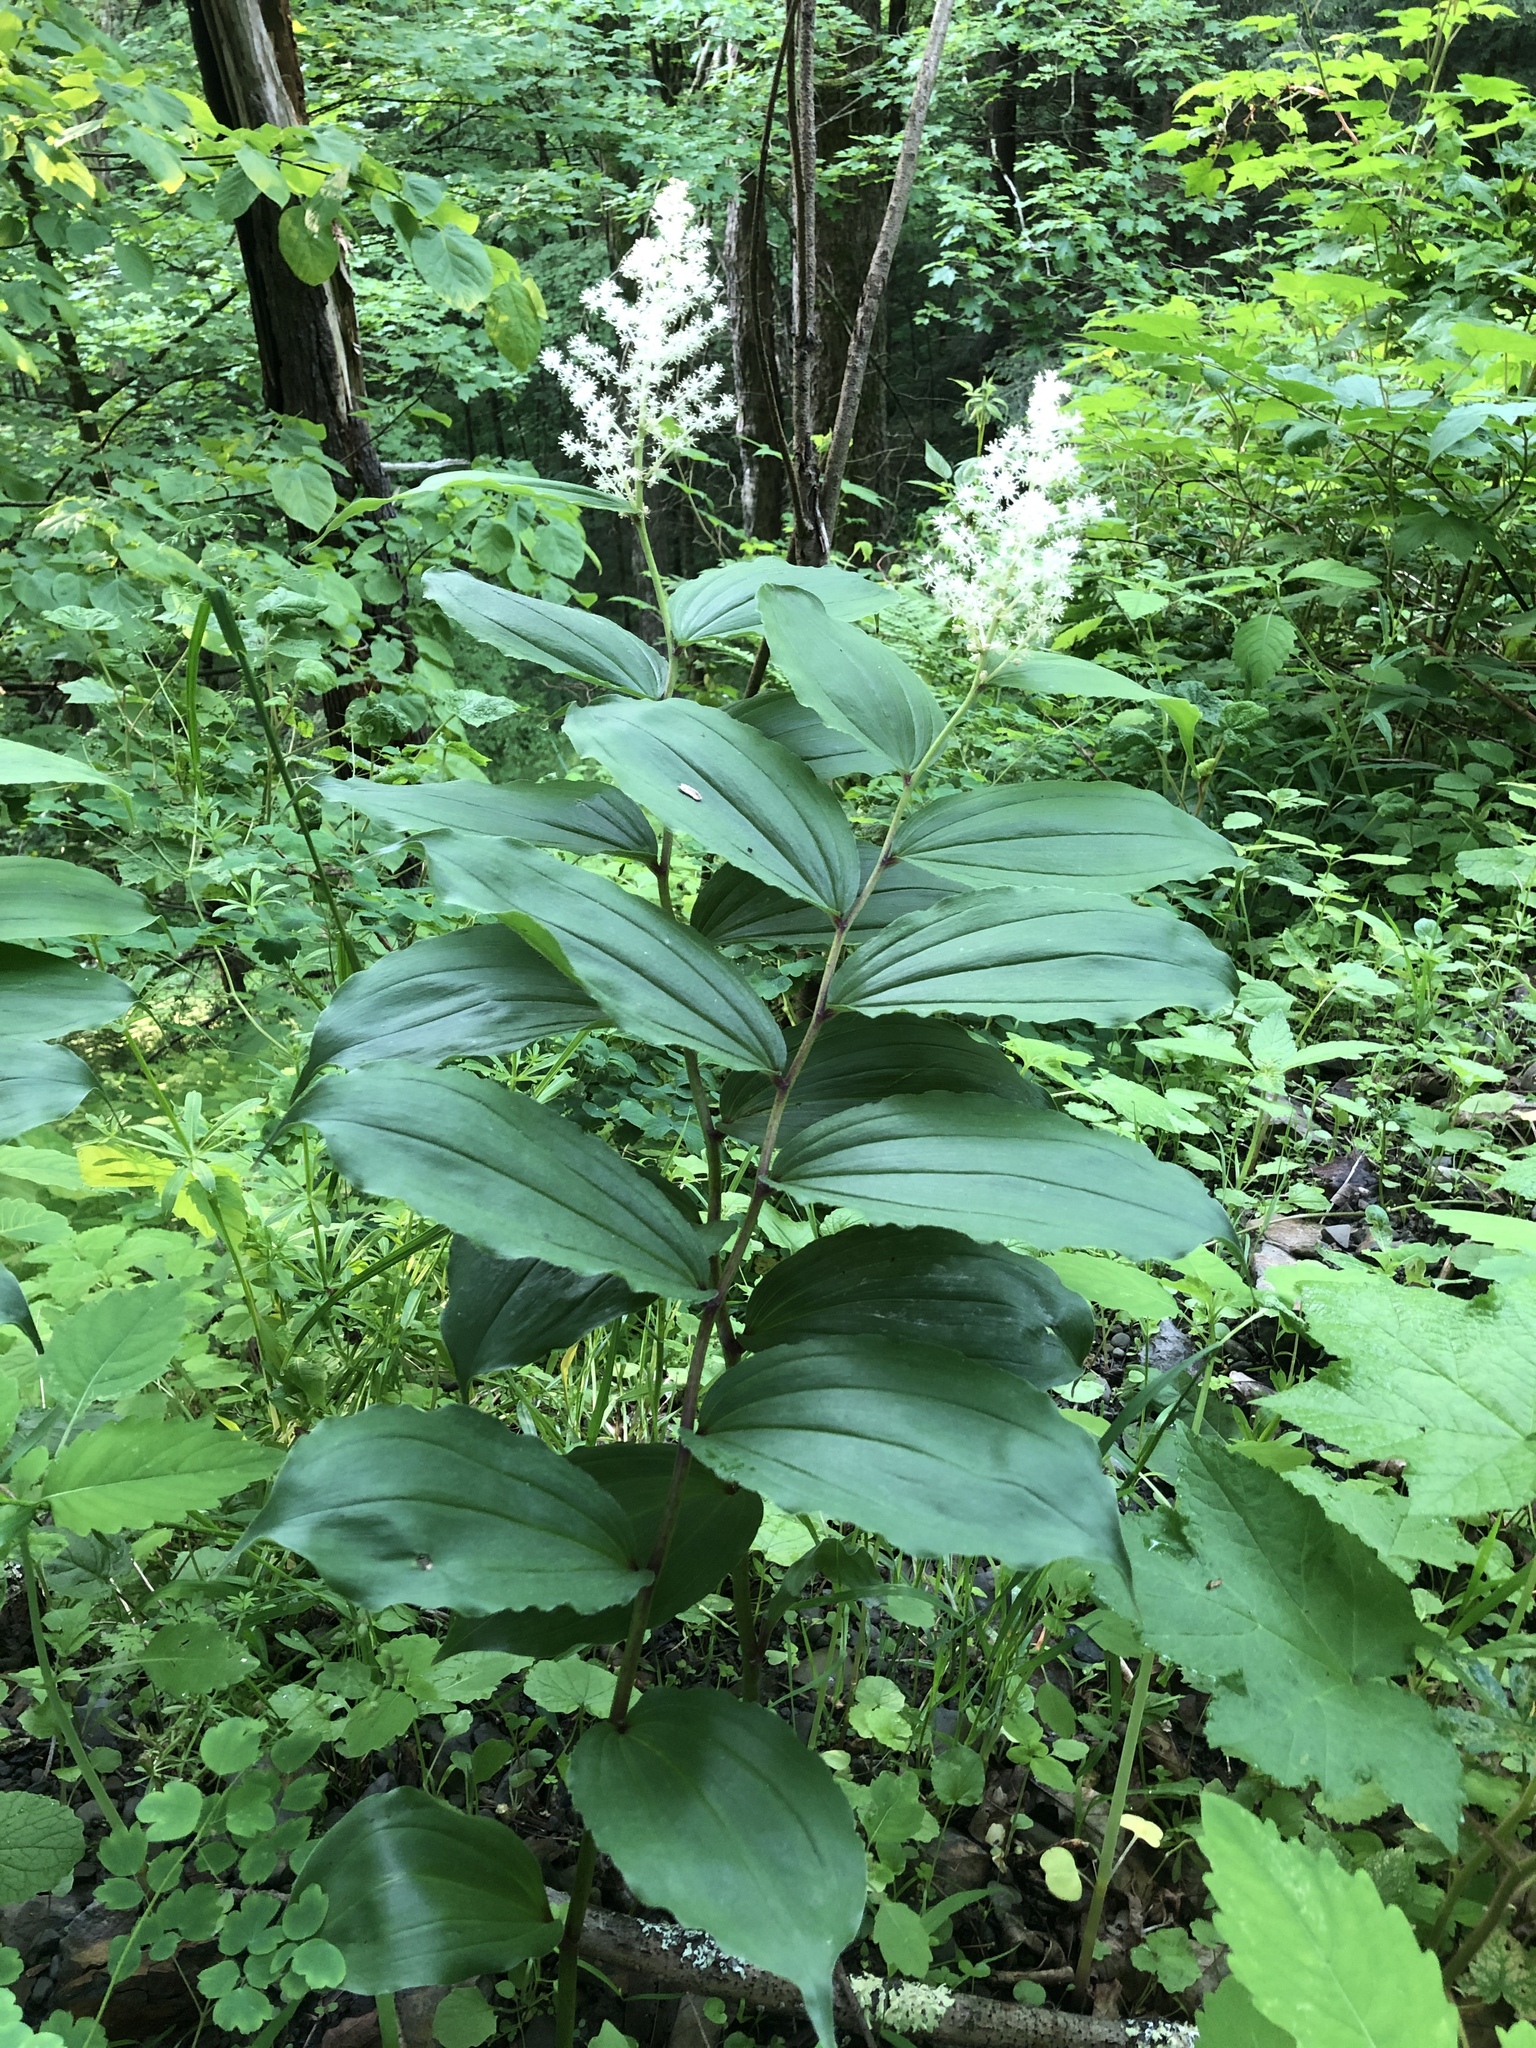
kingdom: Plantae
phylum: Tracheophyta
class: Liliopsida
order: Asparagales
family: Asparagaceae
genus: Maianthemum
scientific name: Maianthemum racemosum
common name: False spikenard
